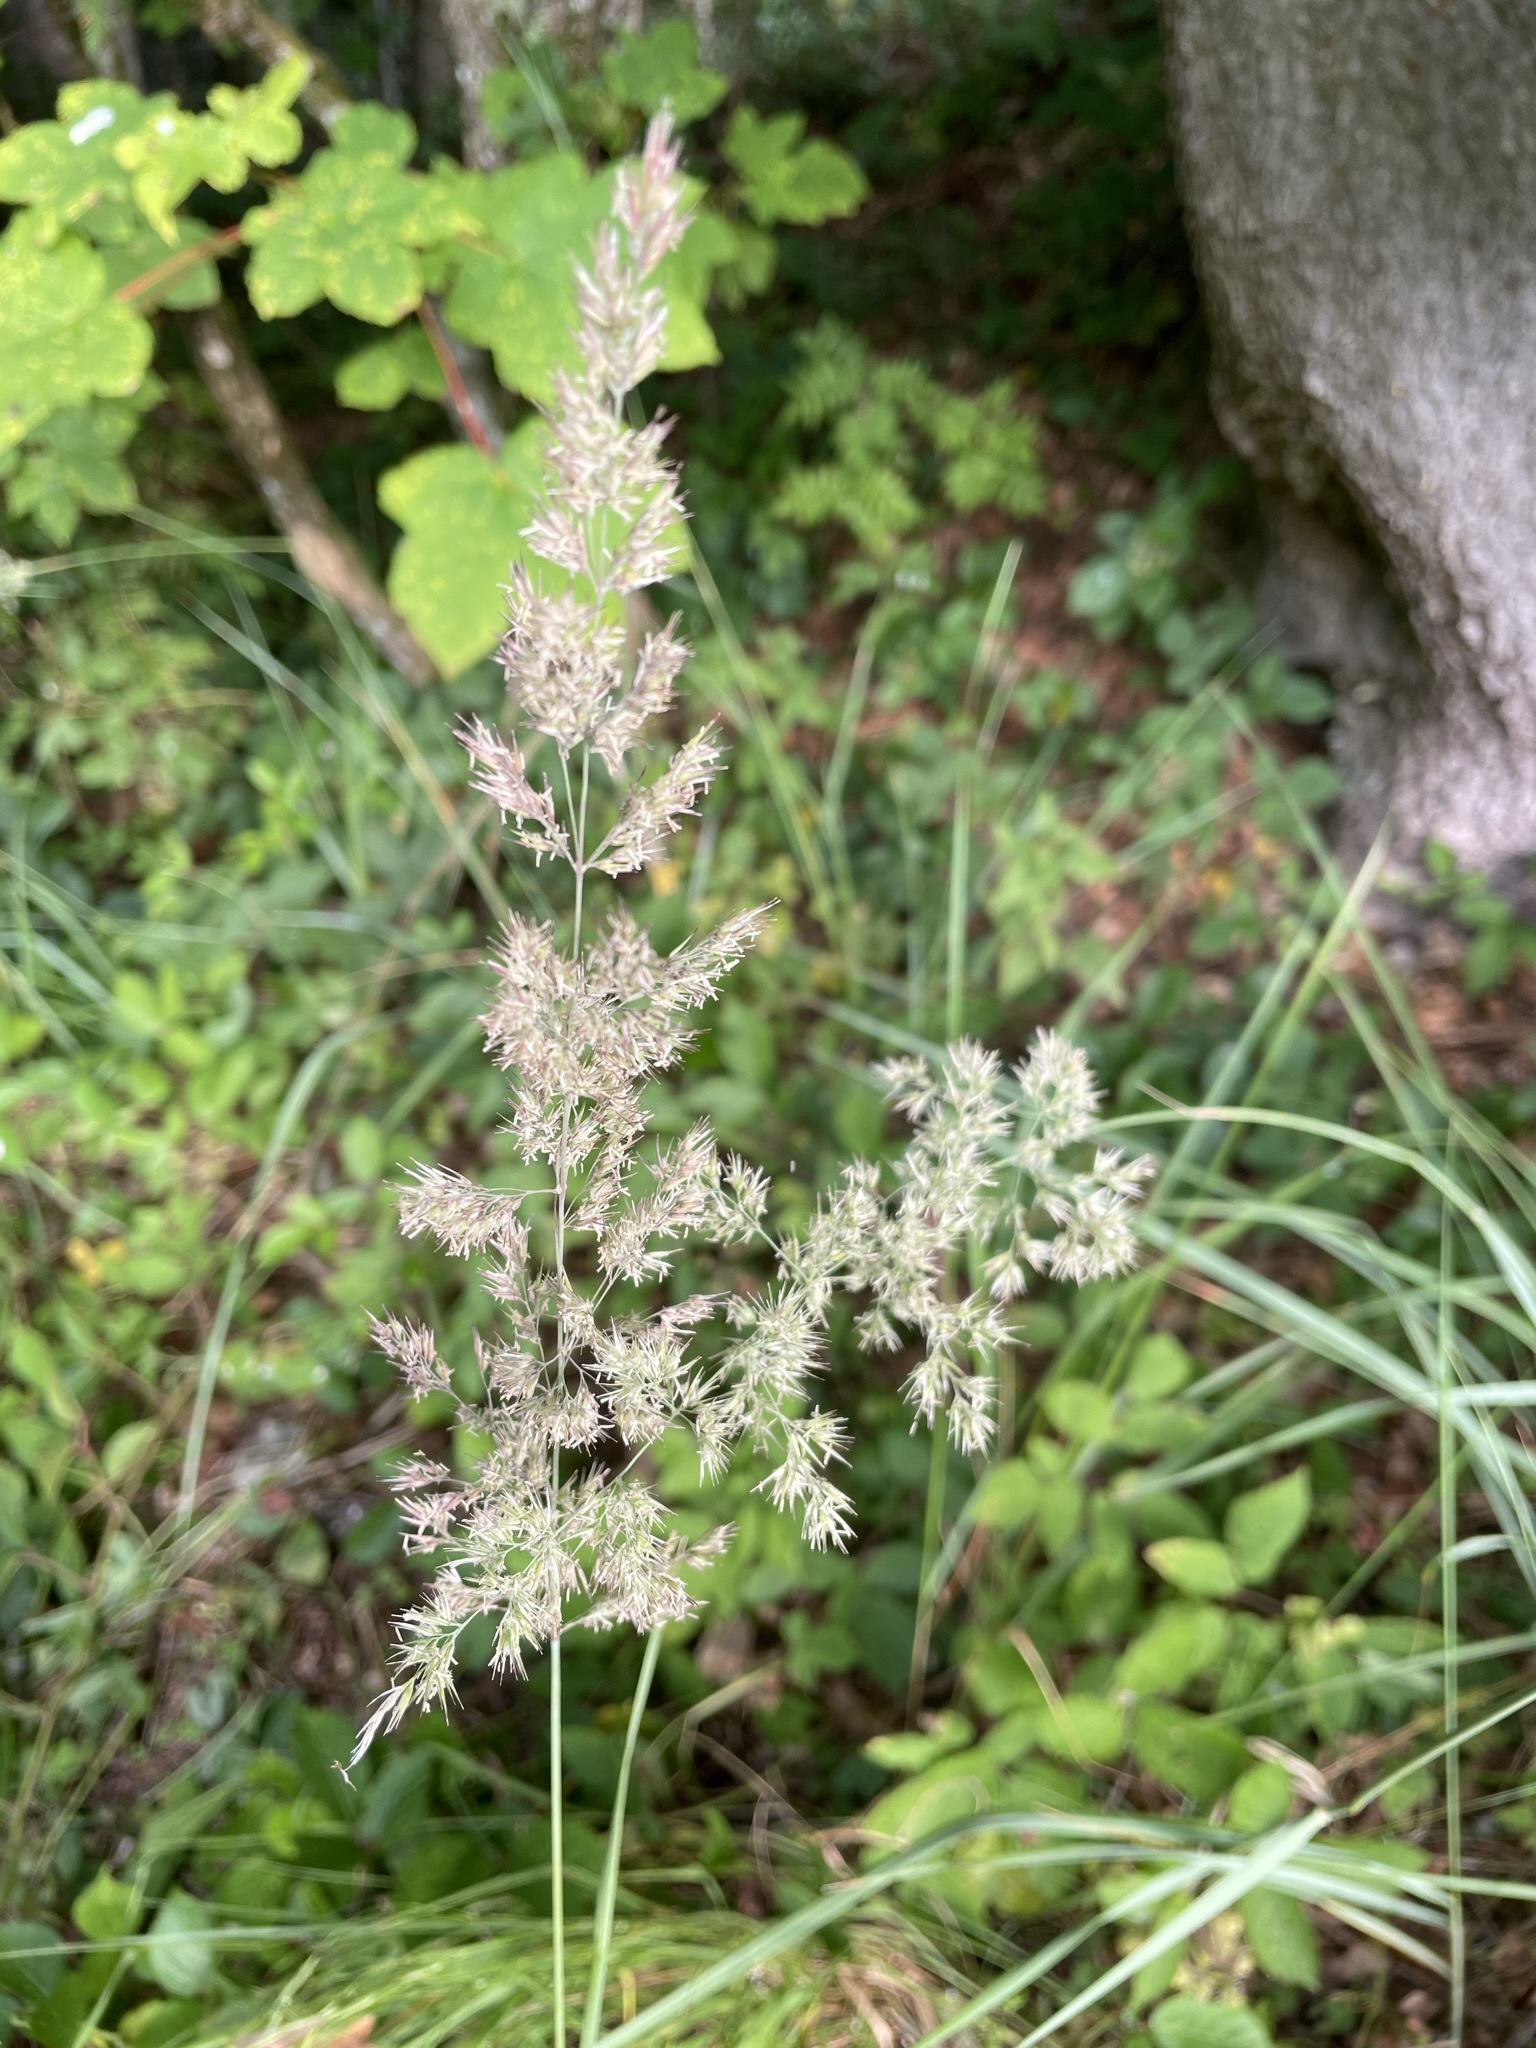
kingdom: Plantae
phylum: Tracheophyta
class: Liliopsida
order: Poales
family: Poaceae
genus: Calamagrostis
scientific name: Calamagrostis epigejos
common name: Wood small-reed
